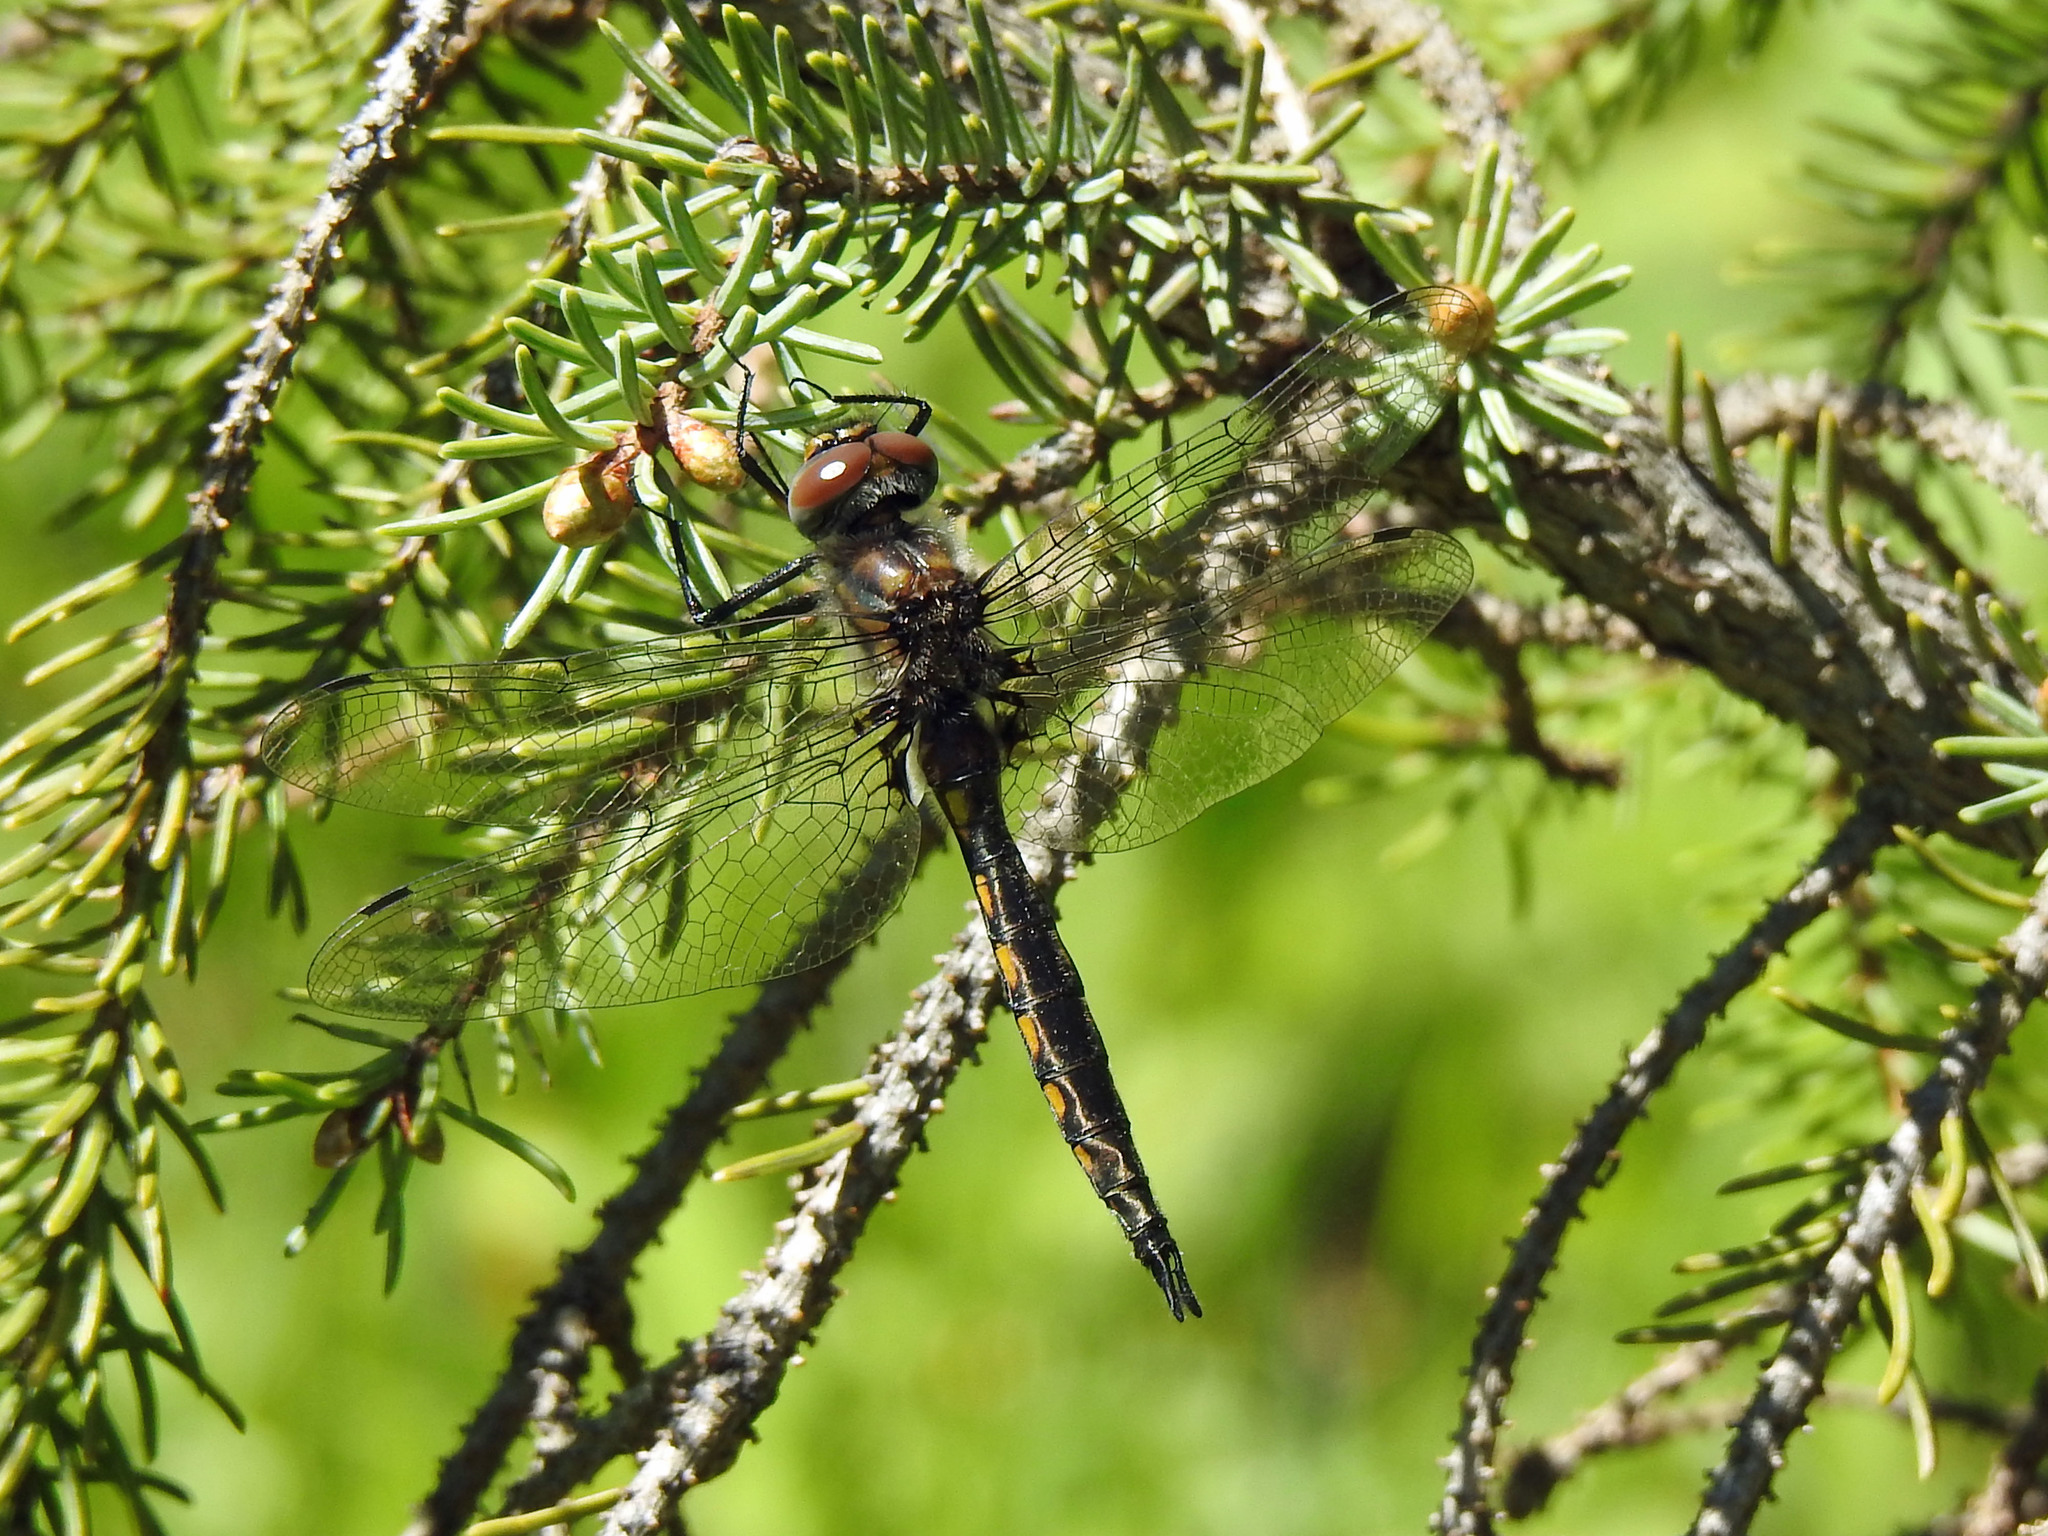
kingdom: Animalia
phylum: Arthropoda
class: Insecta
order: Odonata
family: Corduliidae
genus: Epitheca
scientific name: Epitheca spinigera
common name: Spiny baskettail
